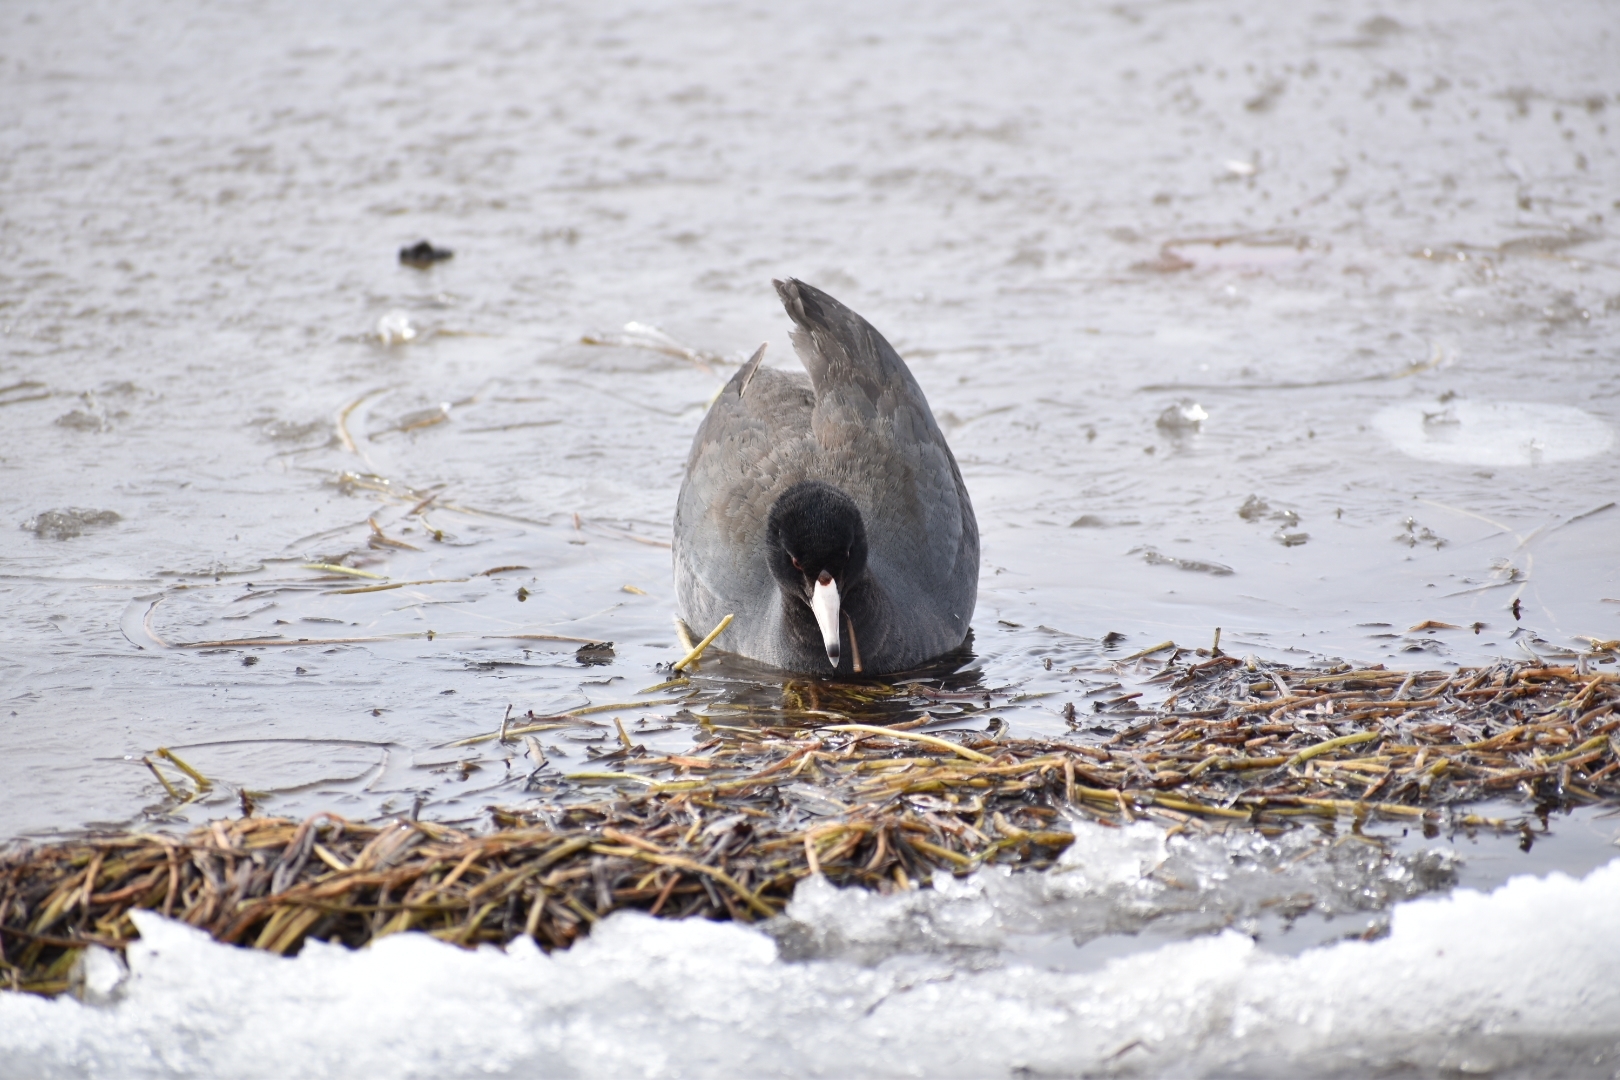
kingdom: Animalia
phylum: Chordata
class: Aves
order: Gruiformes
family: Rallidae
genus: Fulica
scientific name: Fulica americana
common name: American coot
